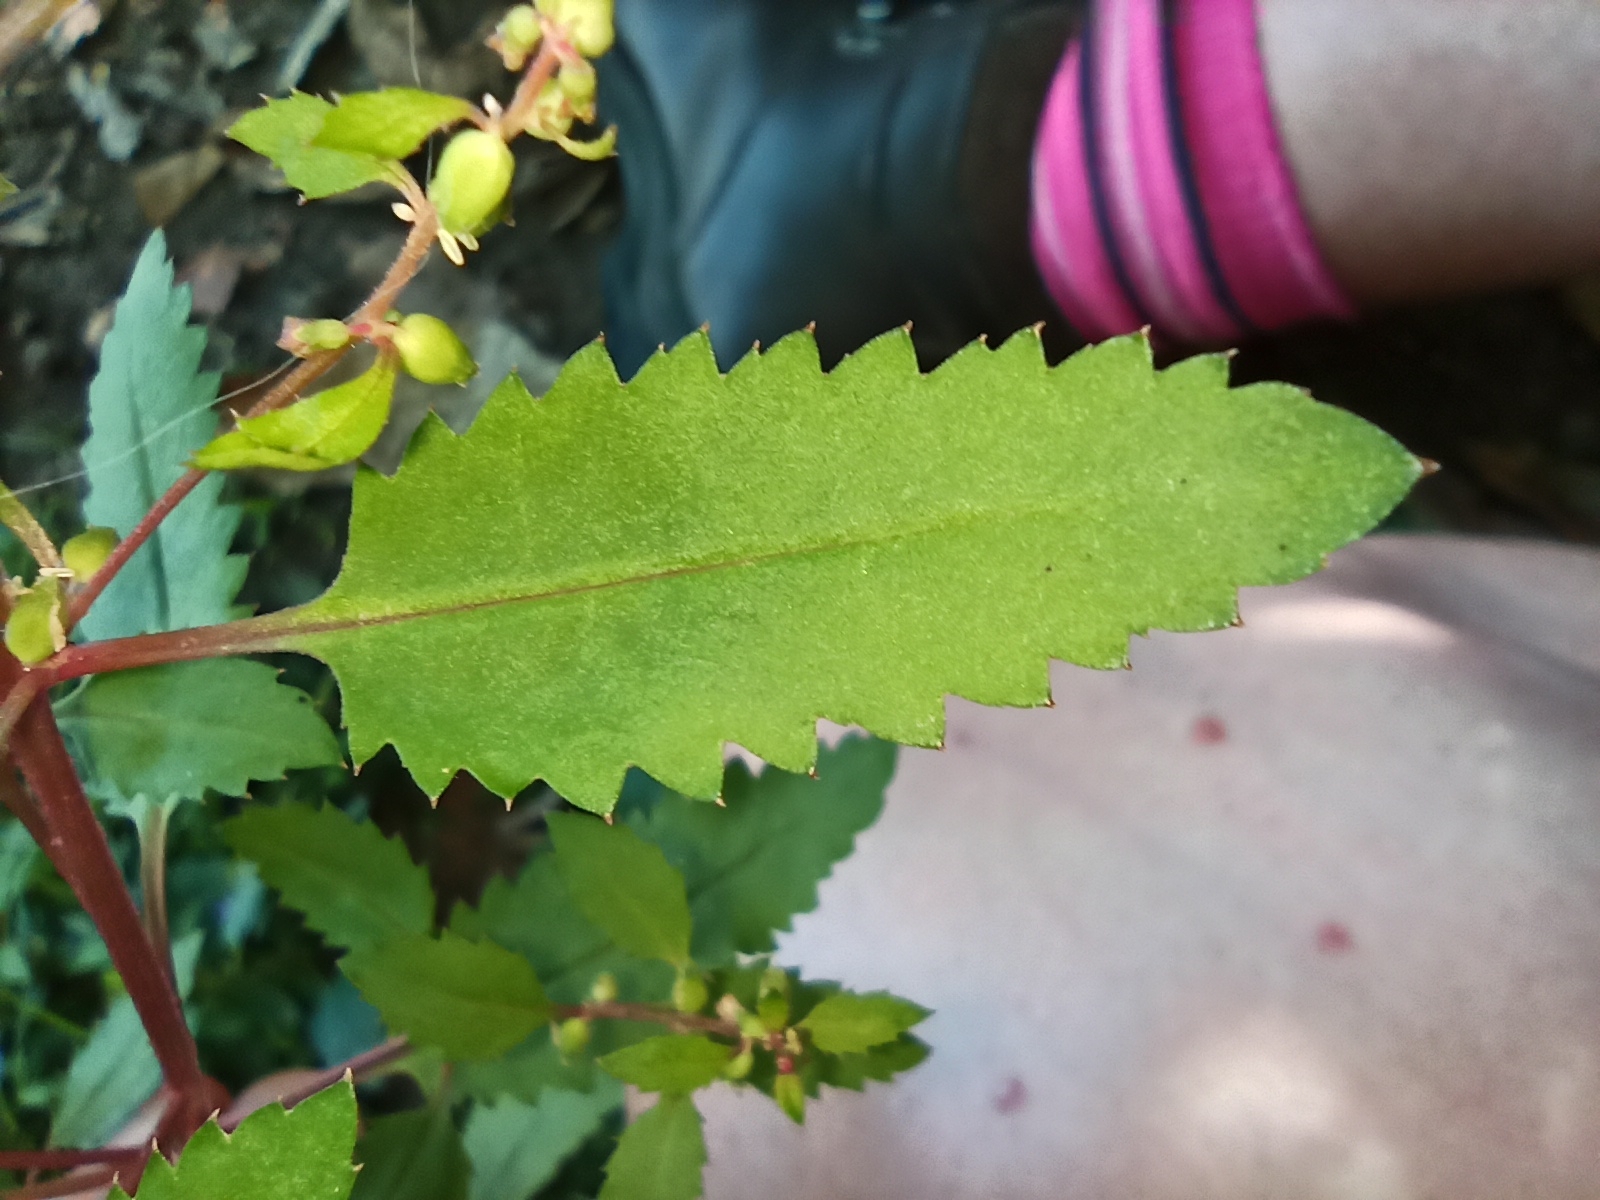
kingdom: Plantae
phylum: Tracheophyta
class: Magnoliopsida
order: Saxifragales
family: Haloragaceae
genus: Haloragis
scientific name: Haloragis erecta
